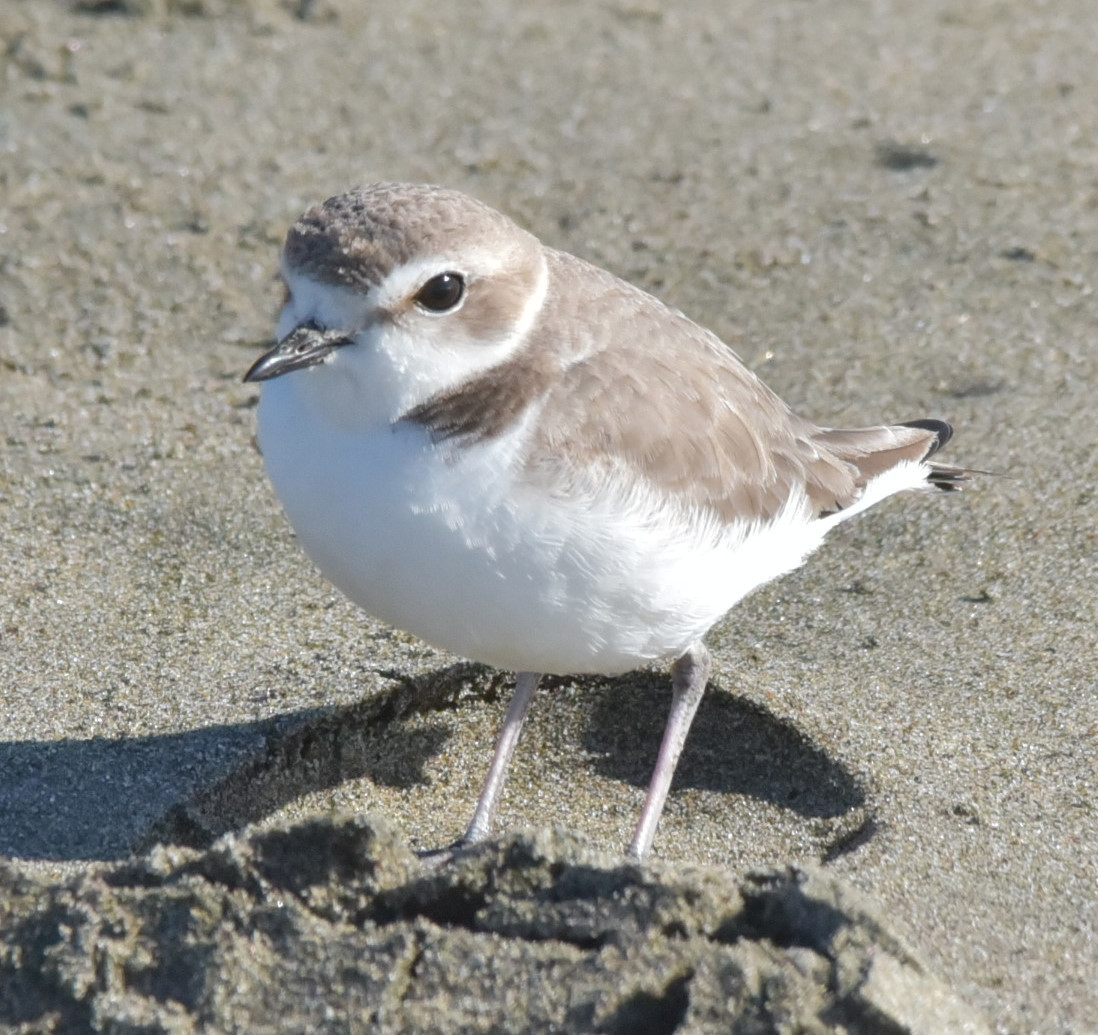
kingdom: Animalia
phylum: Chordata
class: Aves
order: Charadriiformes
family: Charadriidae
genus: Anarhynchus
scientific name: Anarhynchus
